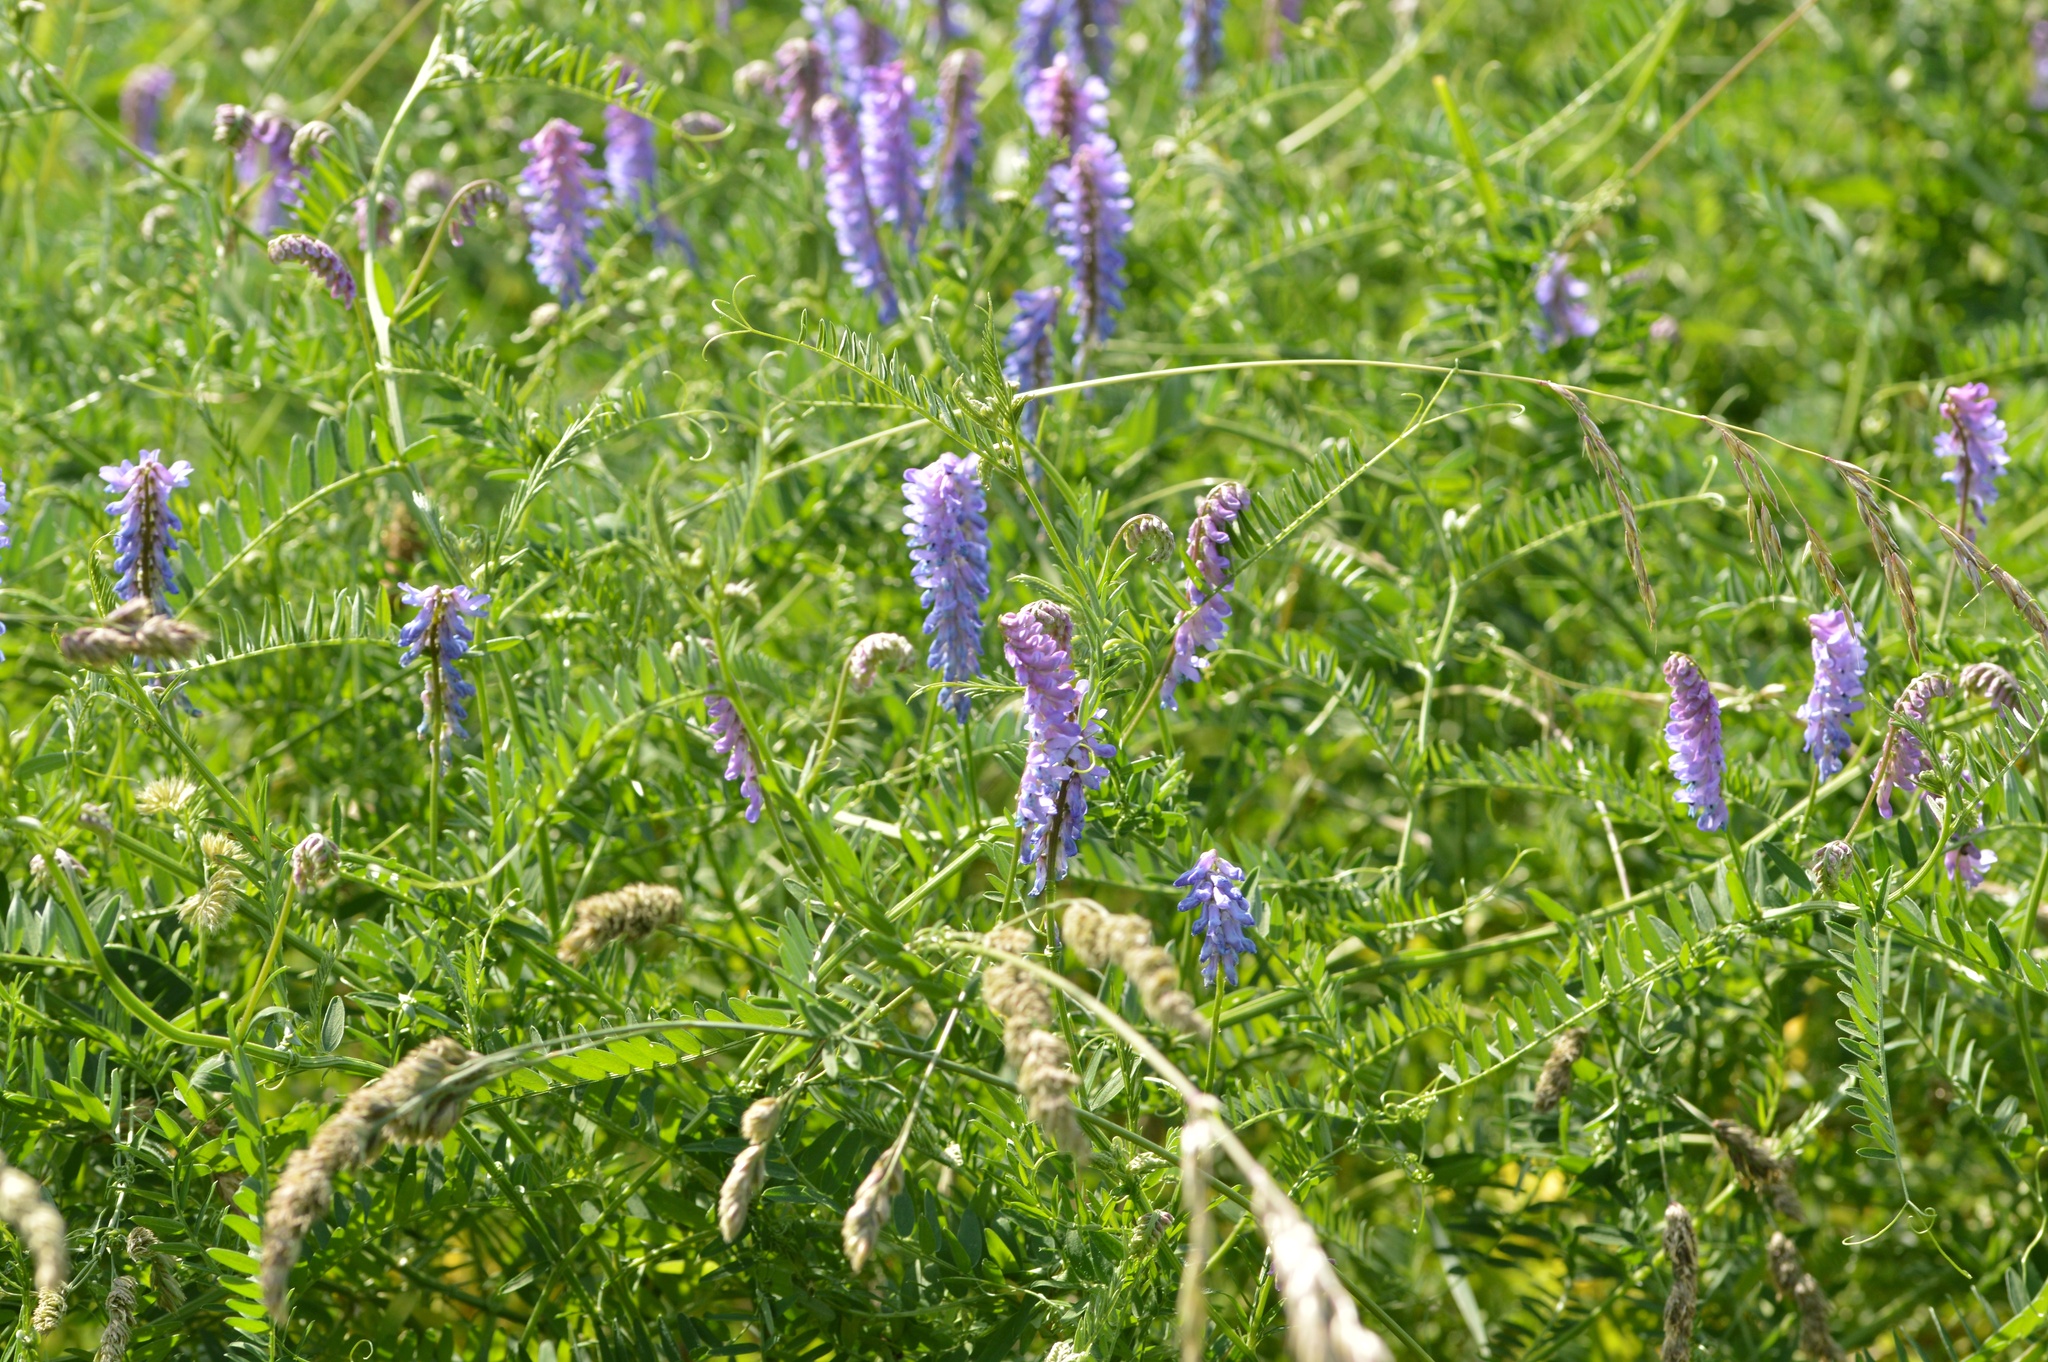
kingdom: Plantae
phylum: Tracheophyta
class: Magnoliopsida
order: Fabales
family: Fabaceae
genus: Vicia
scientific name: Vicia cracca
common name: Bird vetch
